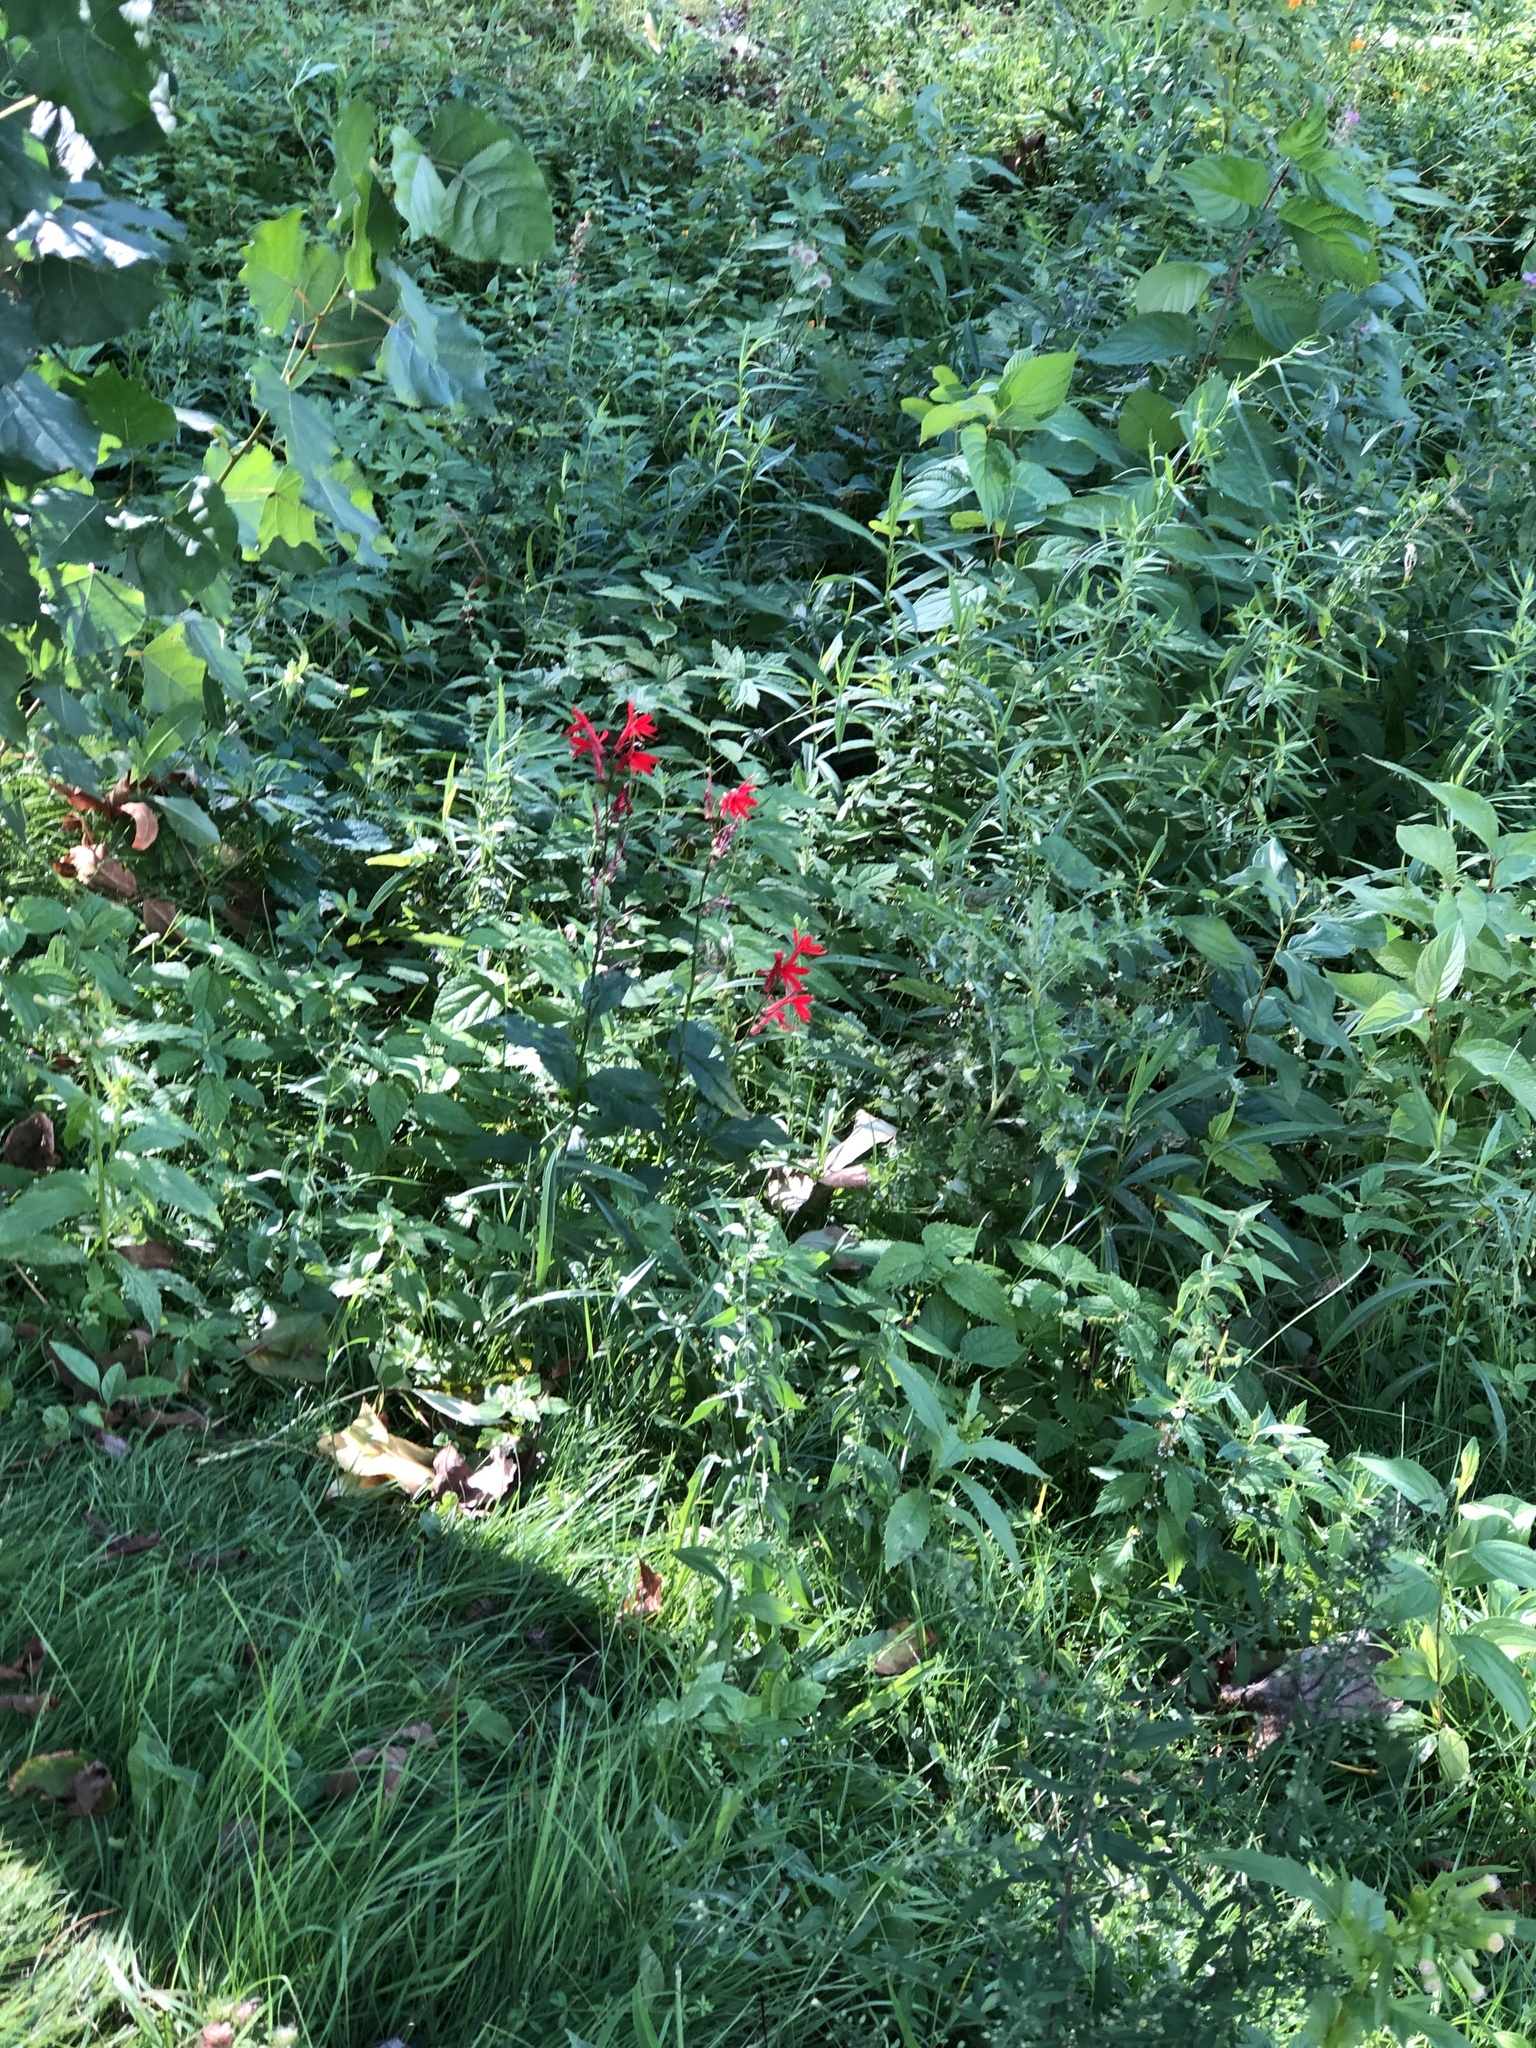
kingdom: Plantae
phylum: Tracheophyta
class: Magnoliopsida
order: Asterales
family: Campanulaceae
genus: Lobelia
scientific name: Lobelia cardinalis
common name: Cardinal flower
